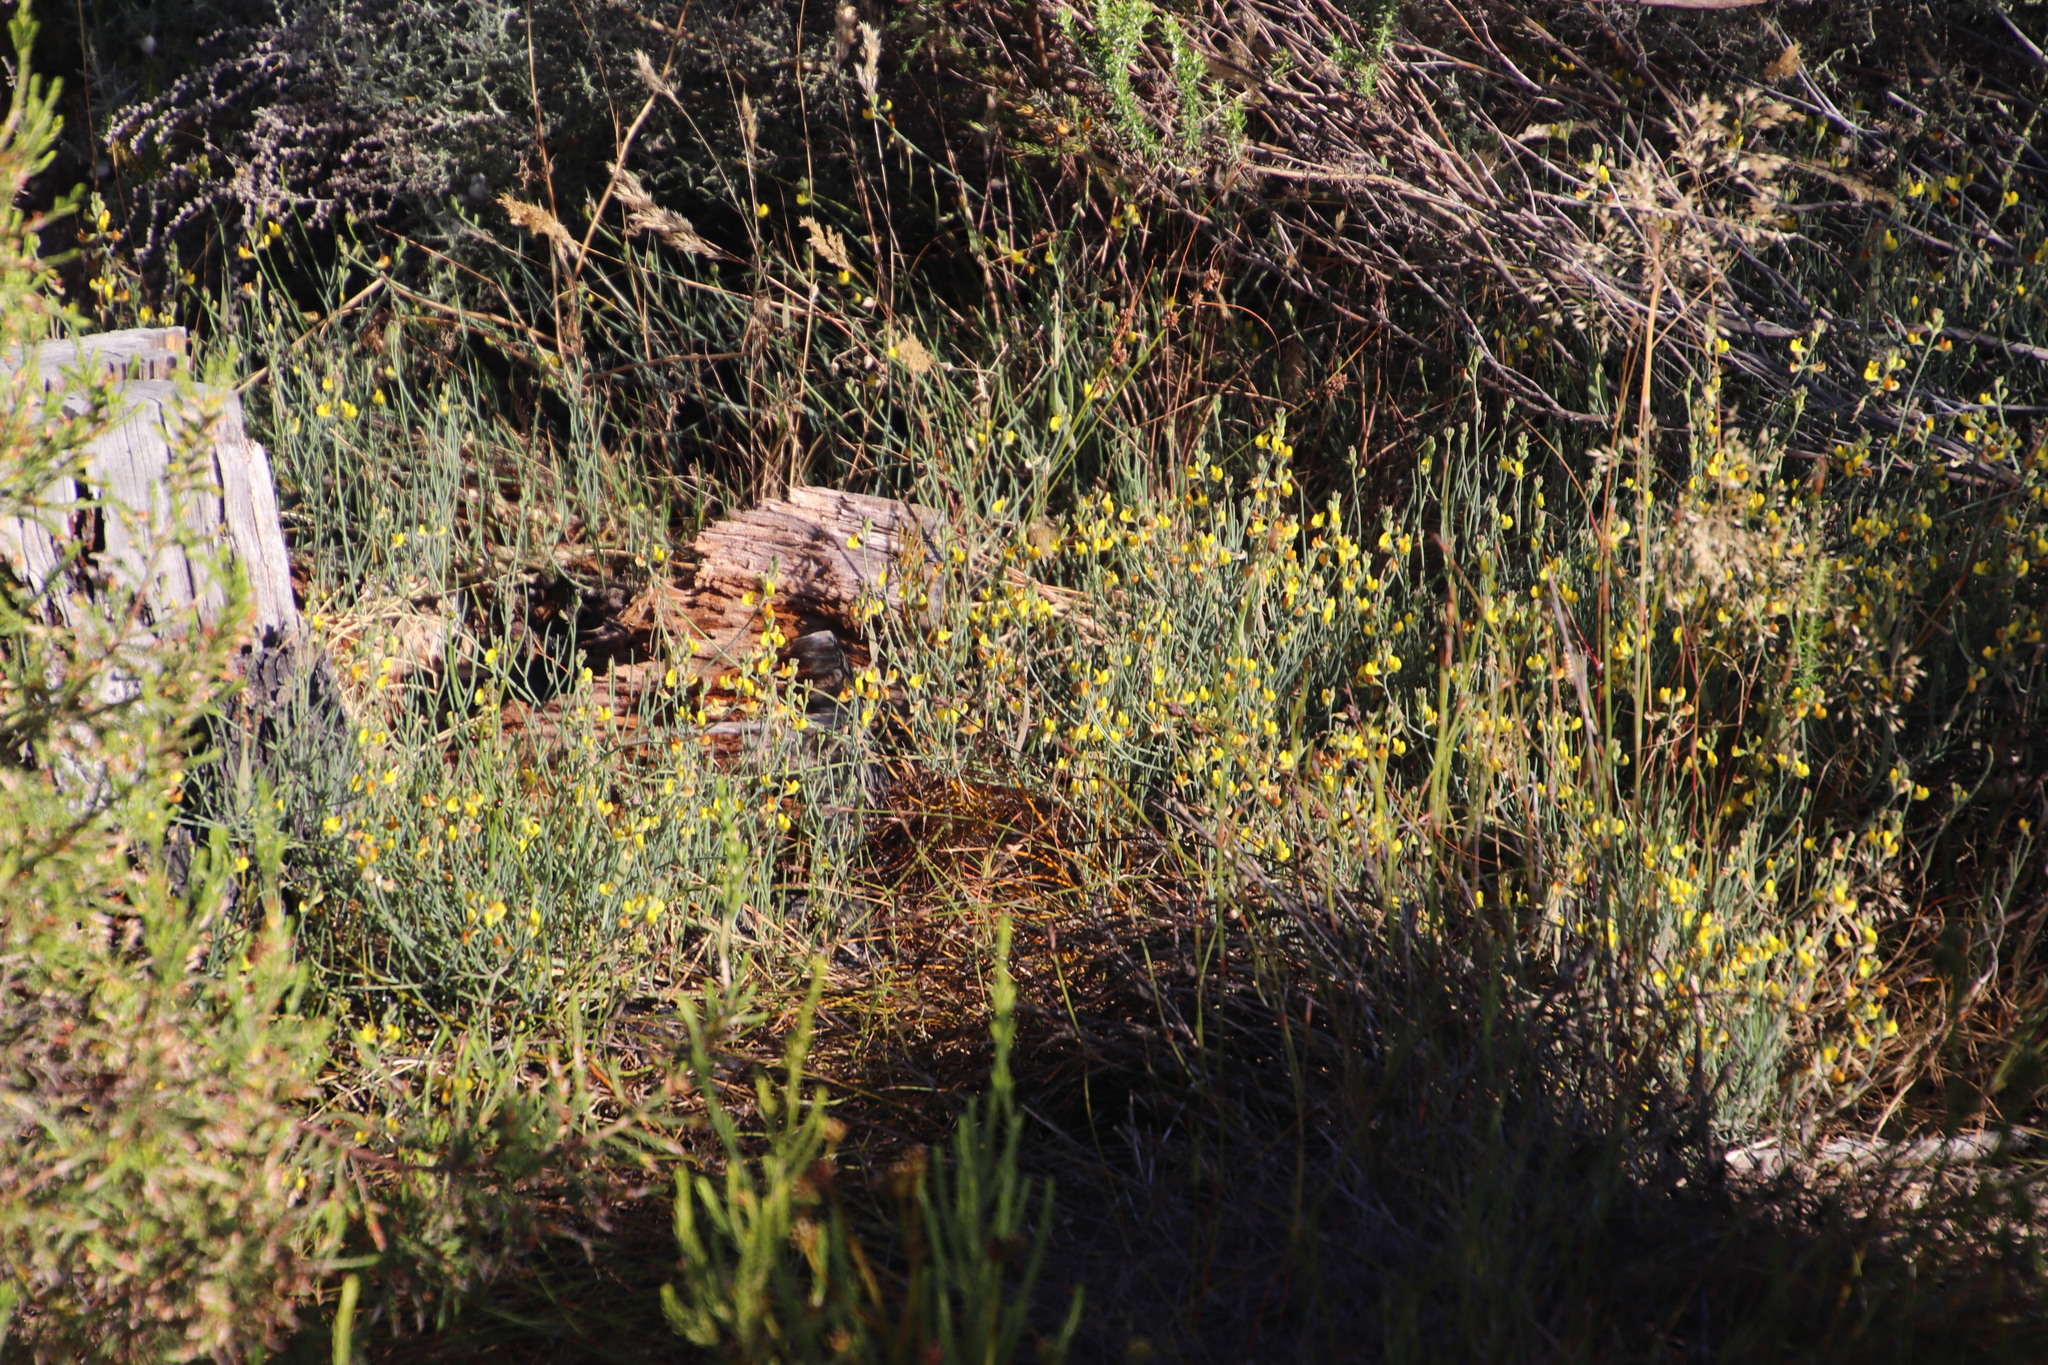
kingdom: Plantae
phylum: Tracheophyta
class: Magnoliopsida
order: Fabales
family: Fabaceae
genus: Lebeckia
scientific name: Lebeckia contaminata
